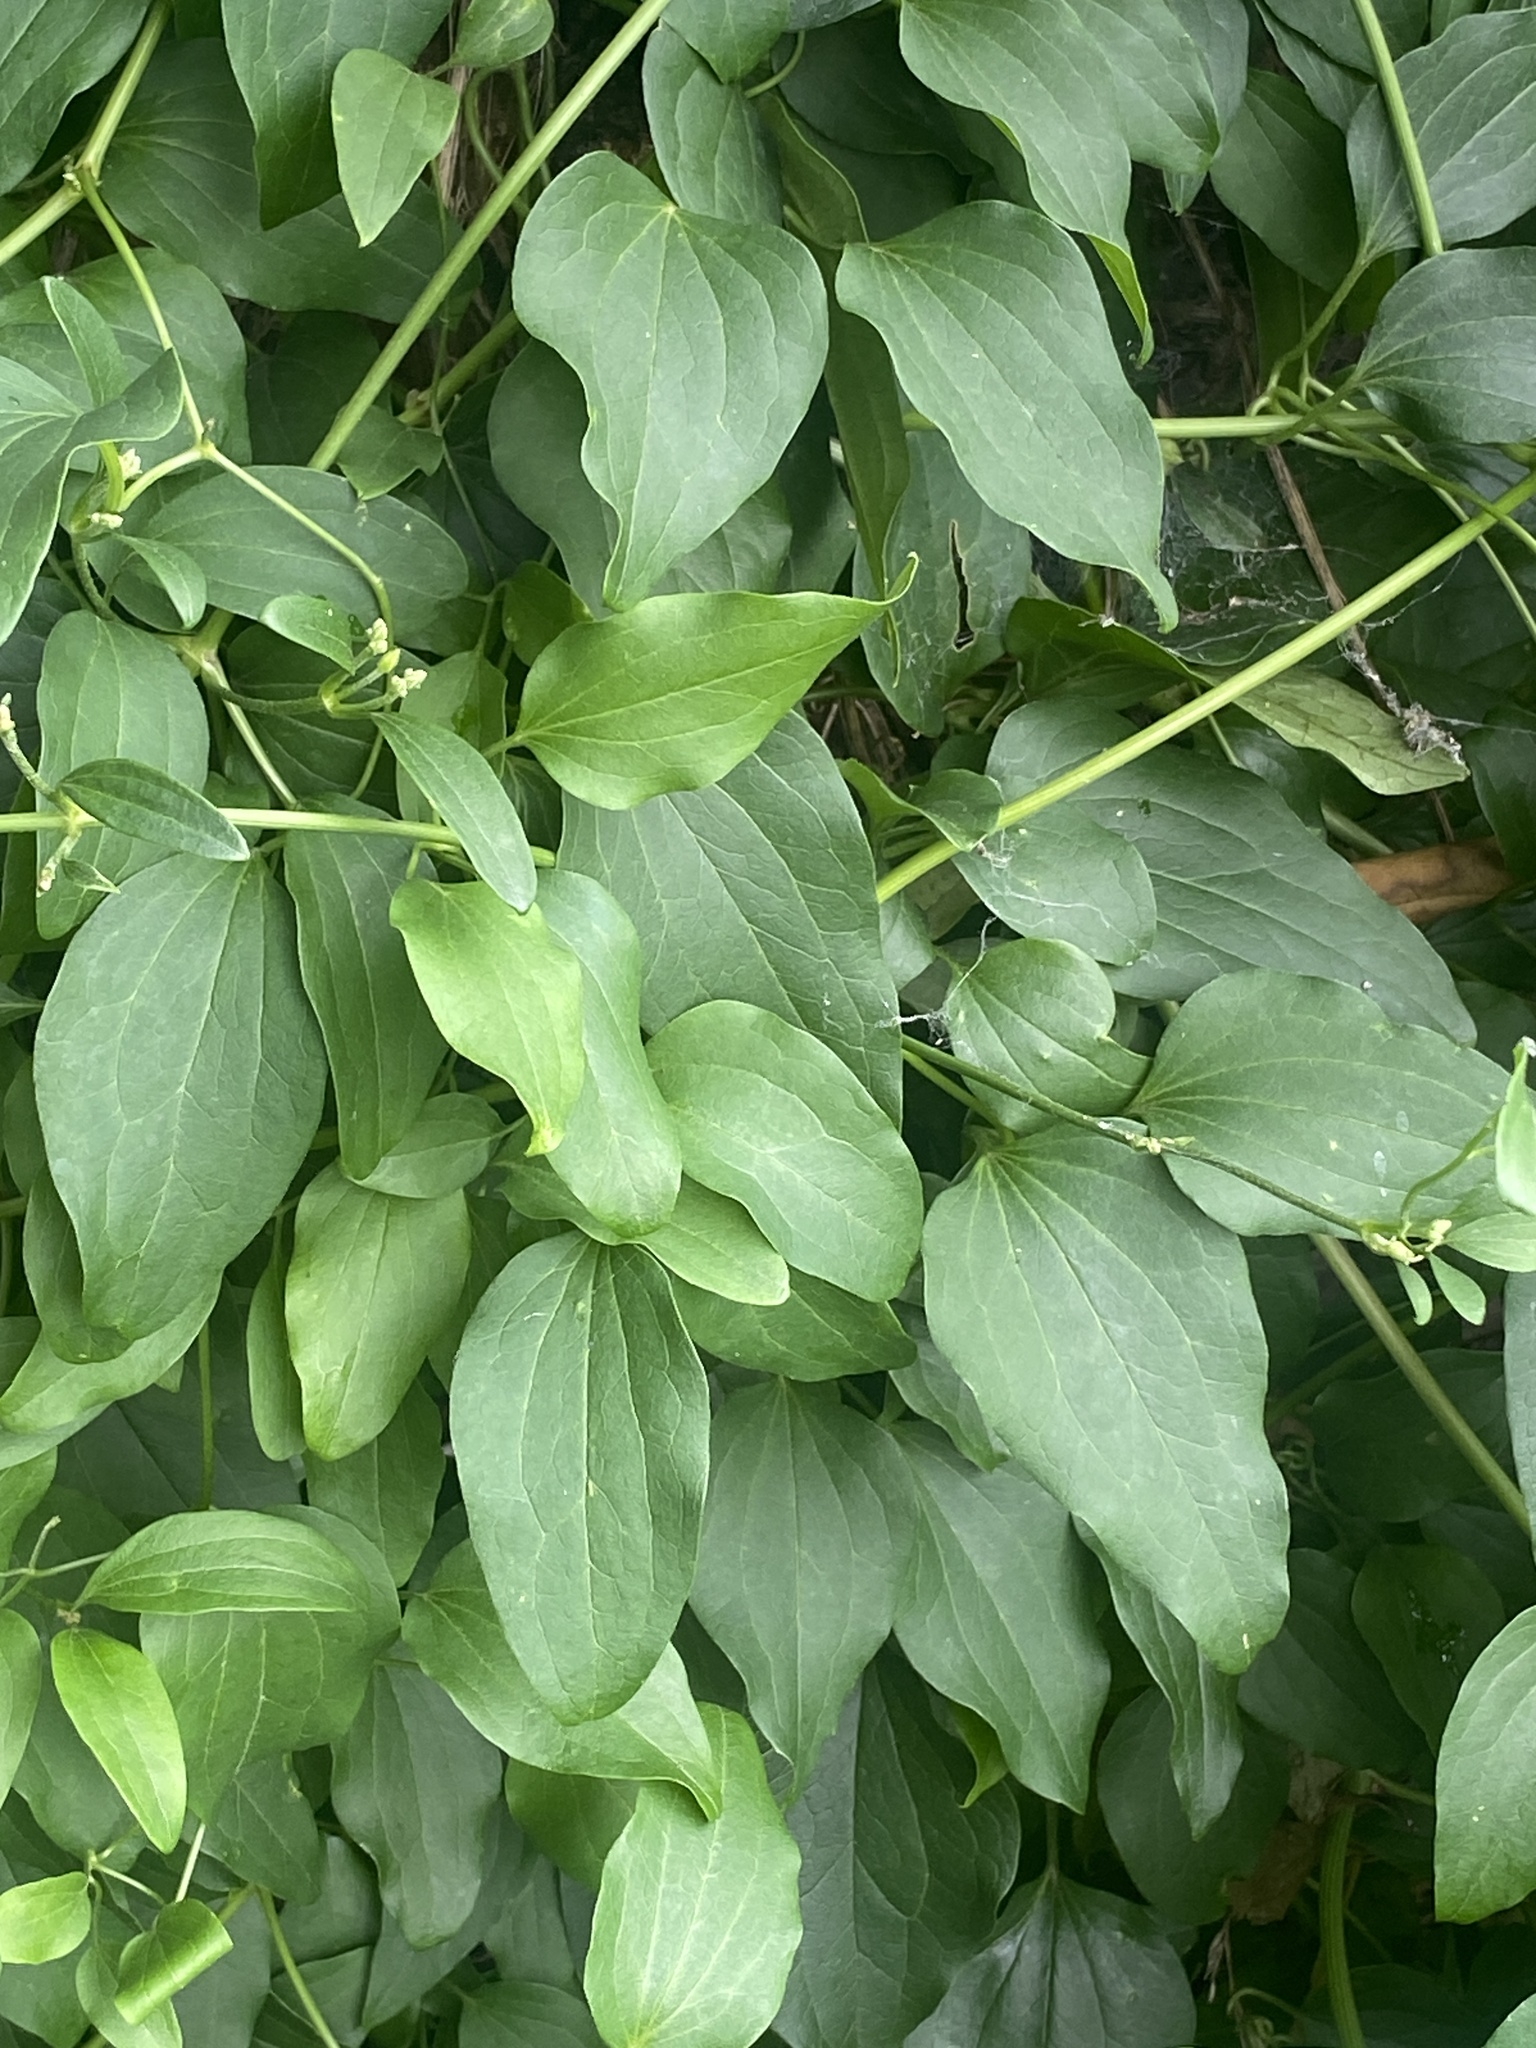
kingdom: Plantae
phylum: Tracheophyta
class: Magnoliopsida
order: Ranunculales
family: Ranunculaceae
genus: Clematis
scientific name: Clematis terniflora
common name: Sweet autumn clematis
